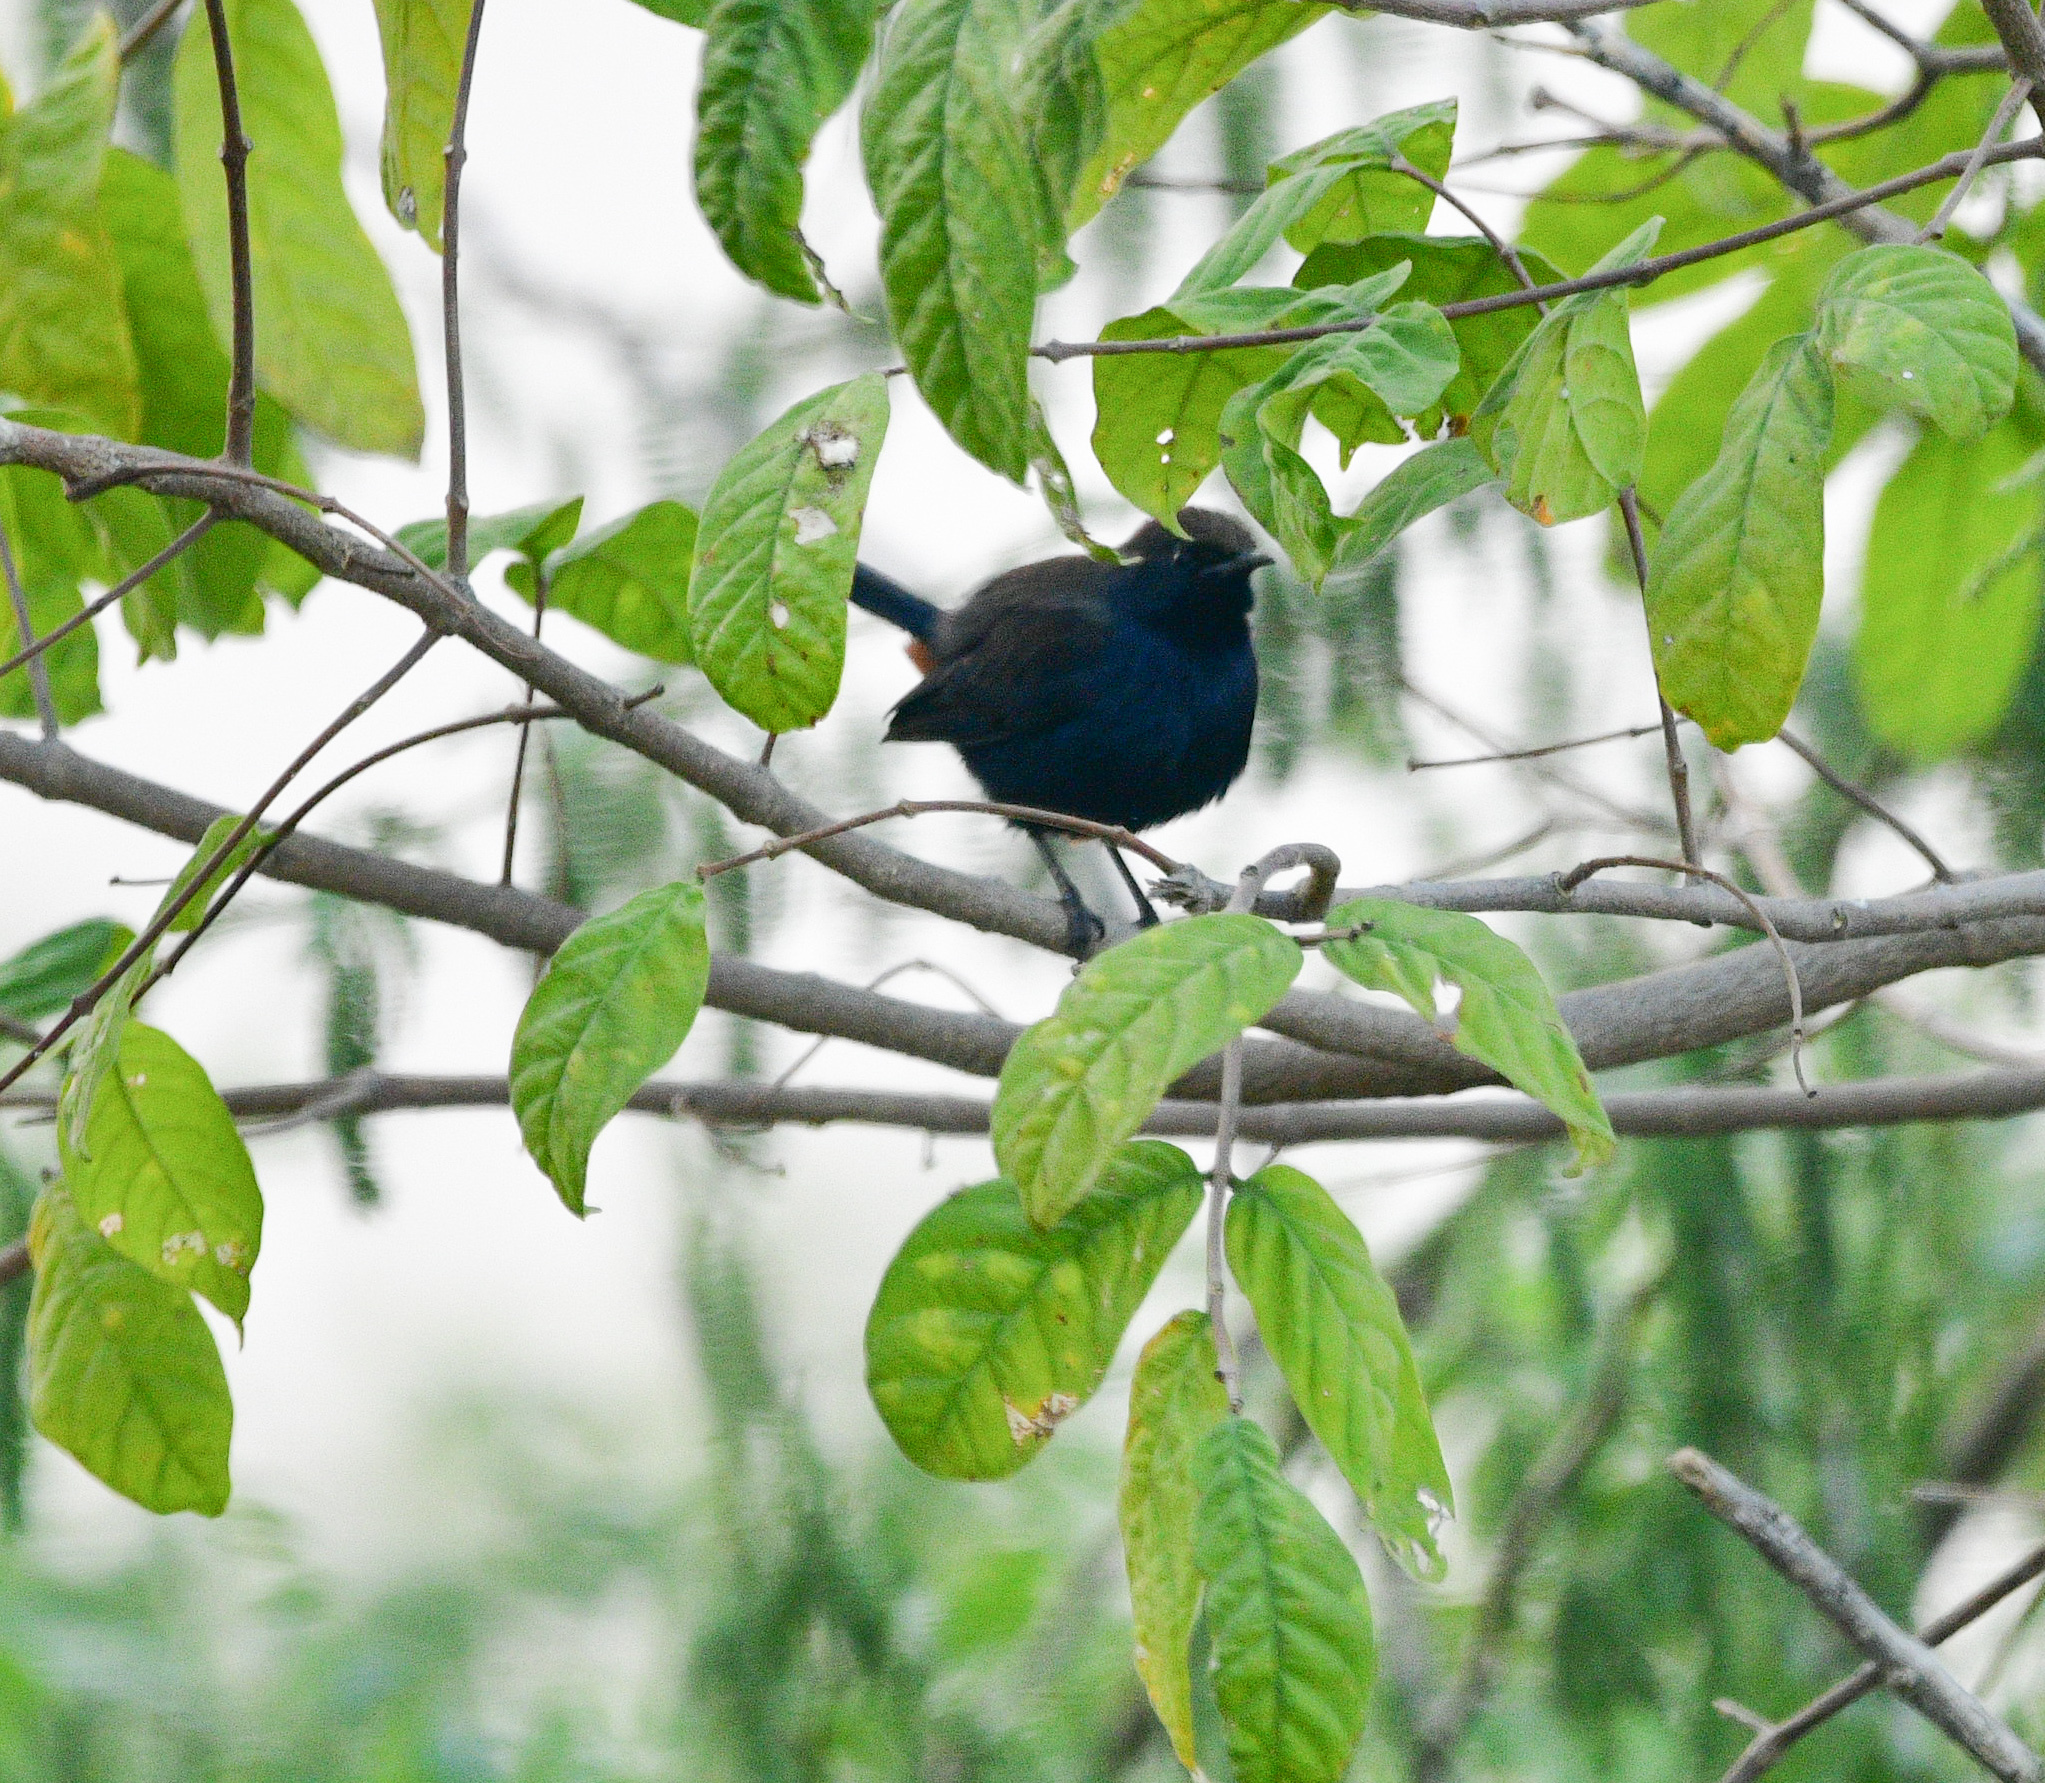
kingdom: Animalia
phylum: Chordata
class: Aves
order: Passeriformes
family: Muscicapidae
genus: Saxicoloides
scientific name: Saxicoloides fulicatus
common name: Indian robin
